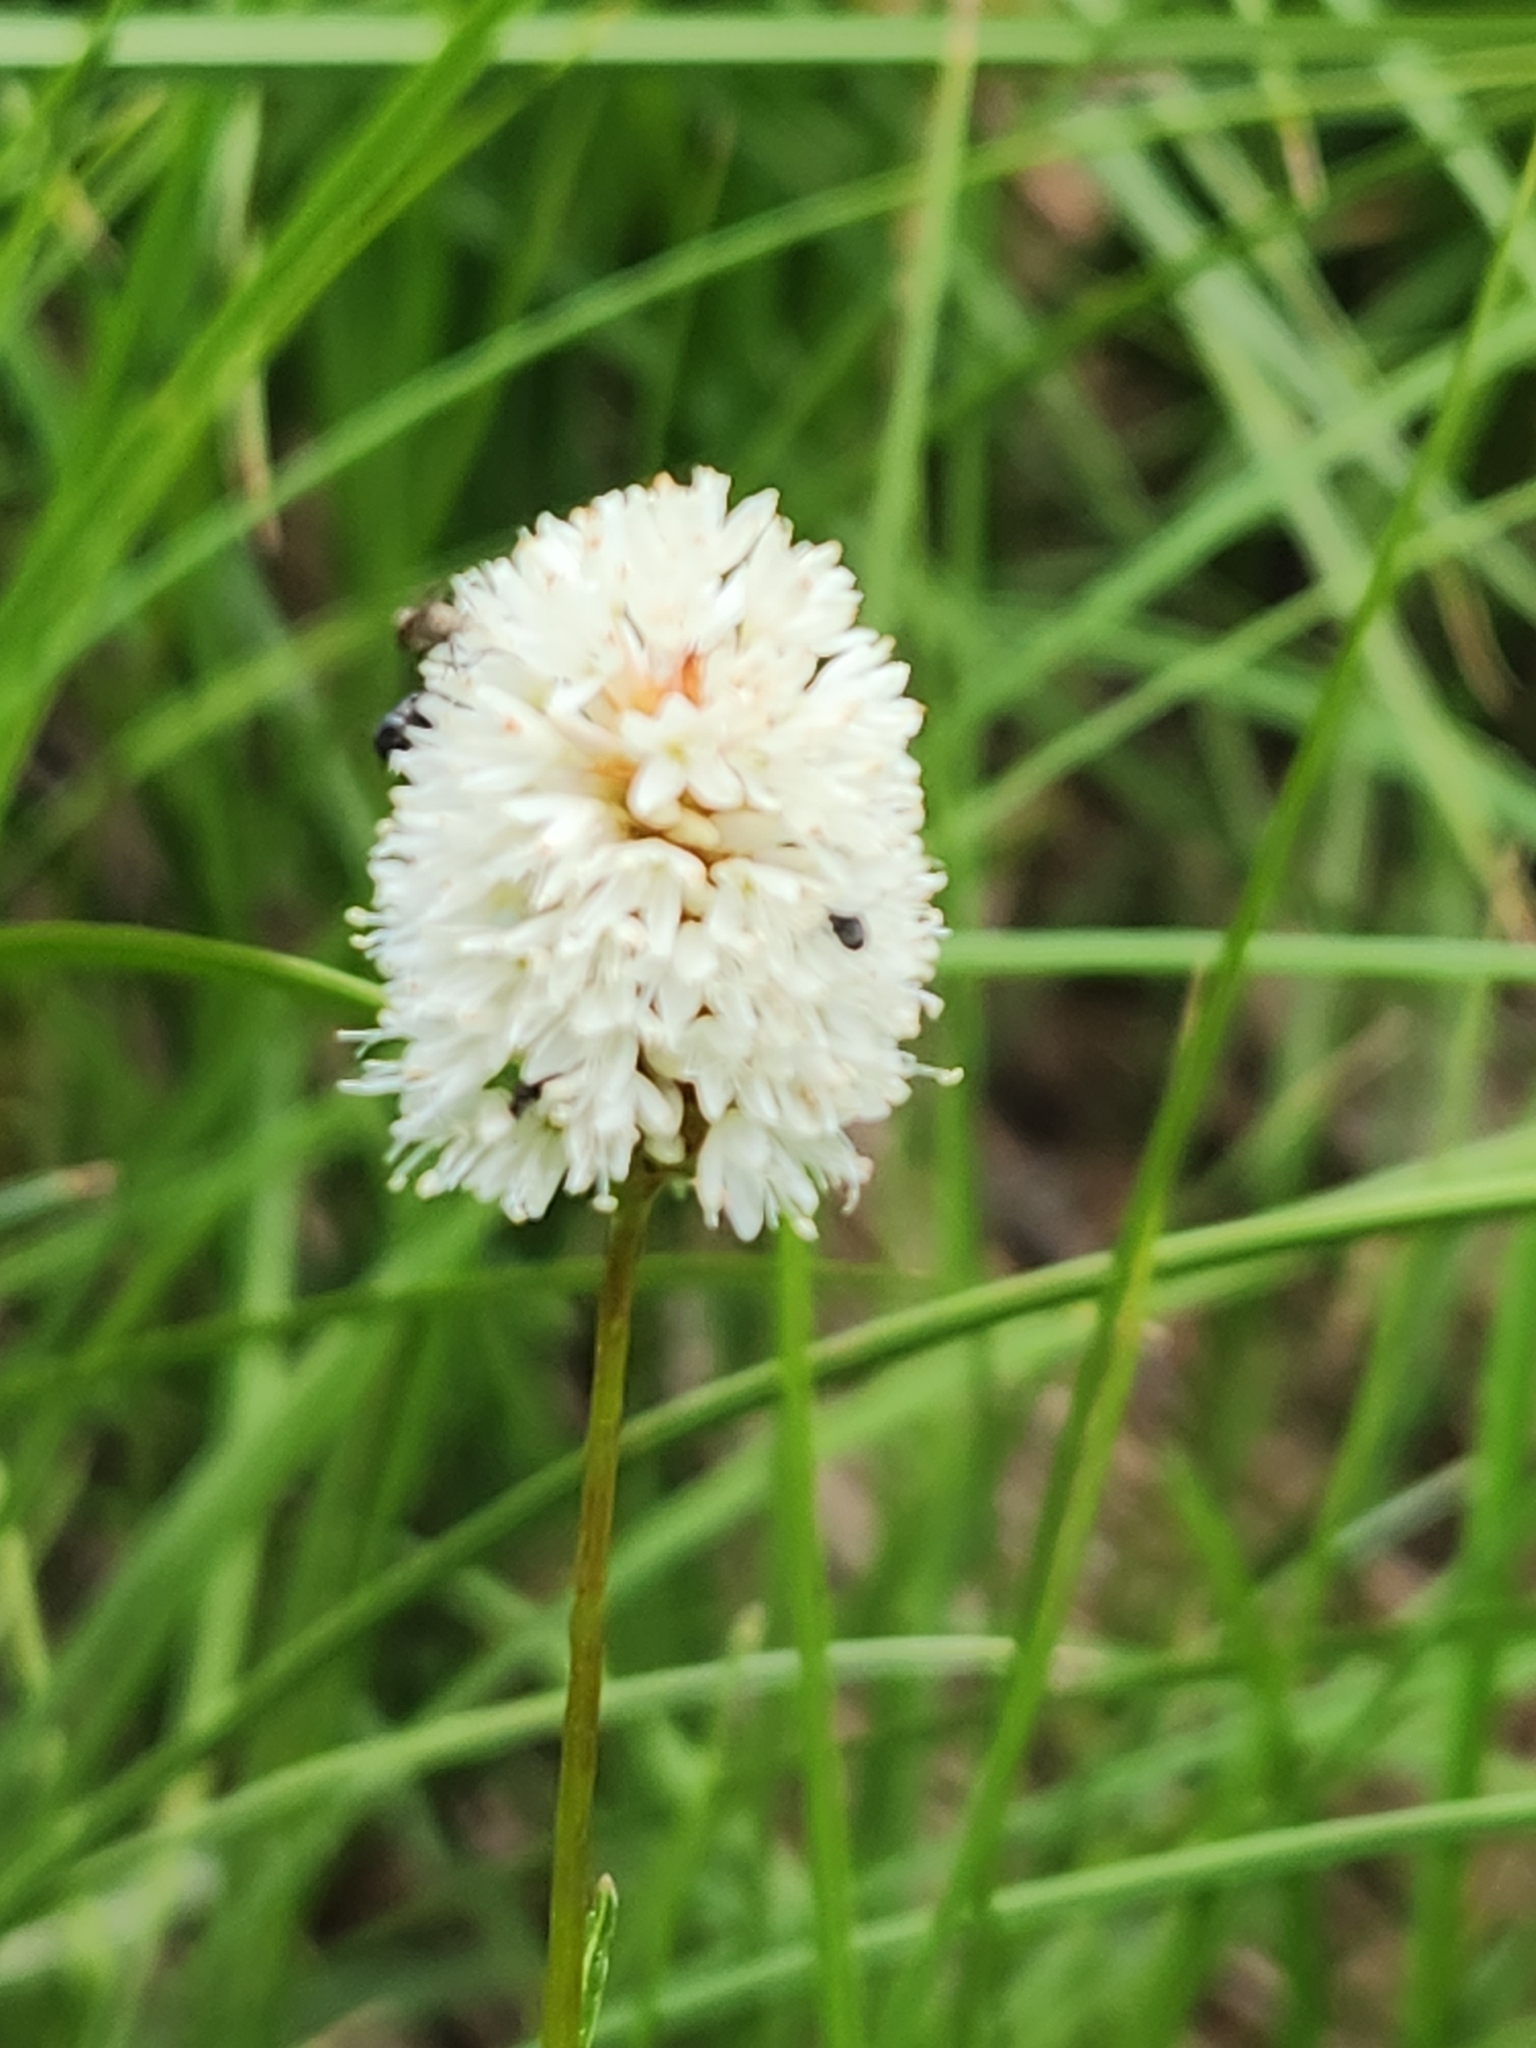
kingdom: Plantae
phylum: Tracheophyta
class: Magnoliopsida
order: Caryophyllales
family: Polygonaceae
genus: Bistorta
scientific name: Bistorta bistortoides
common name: American bistort
